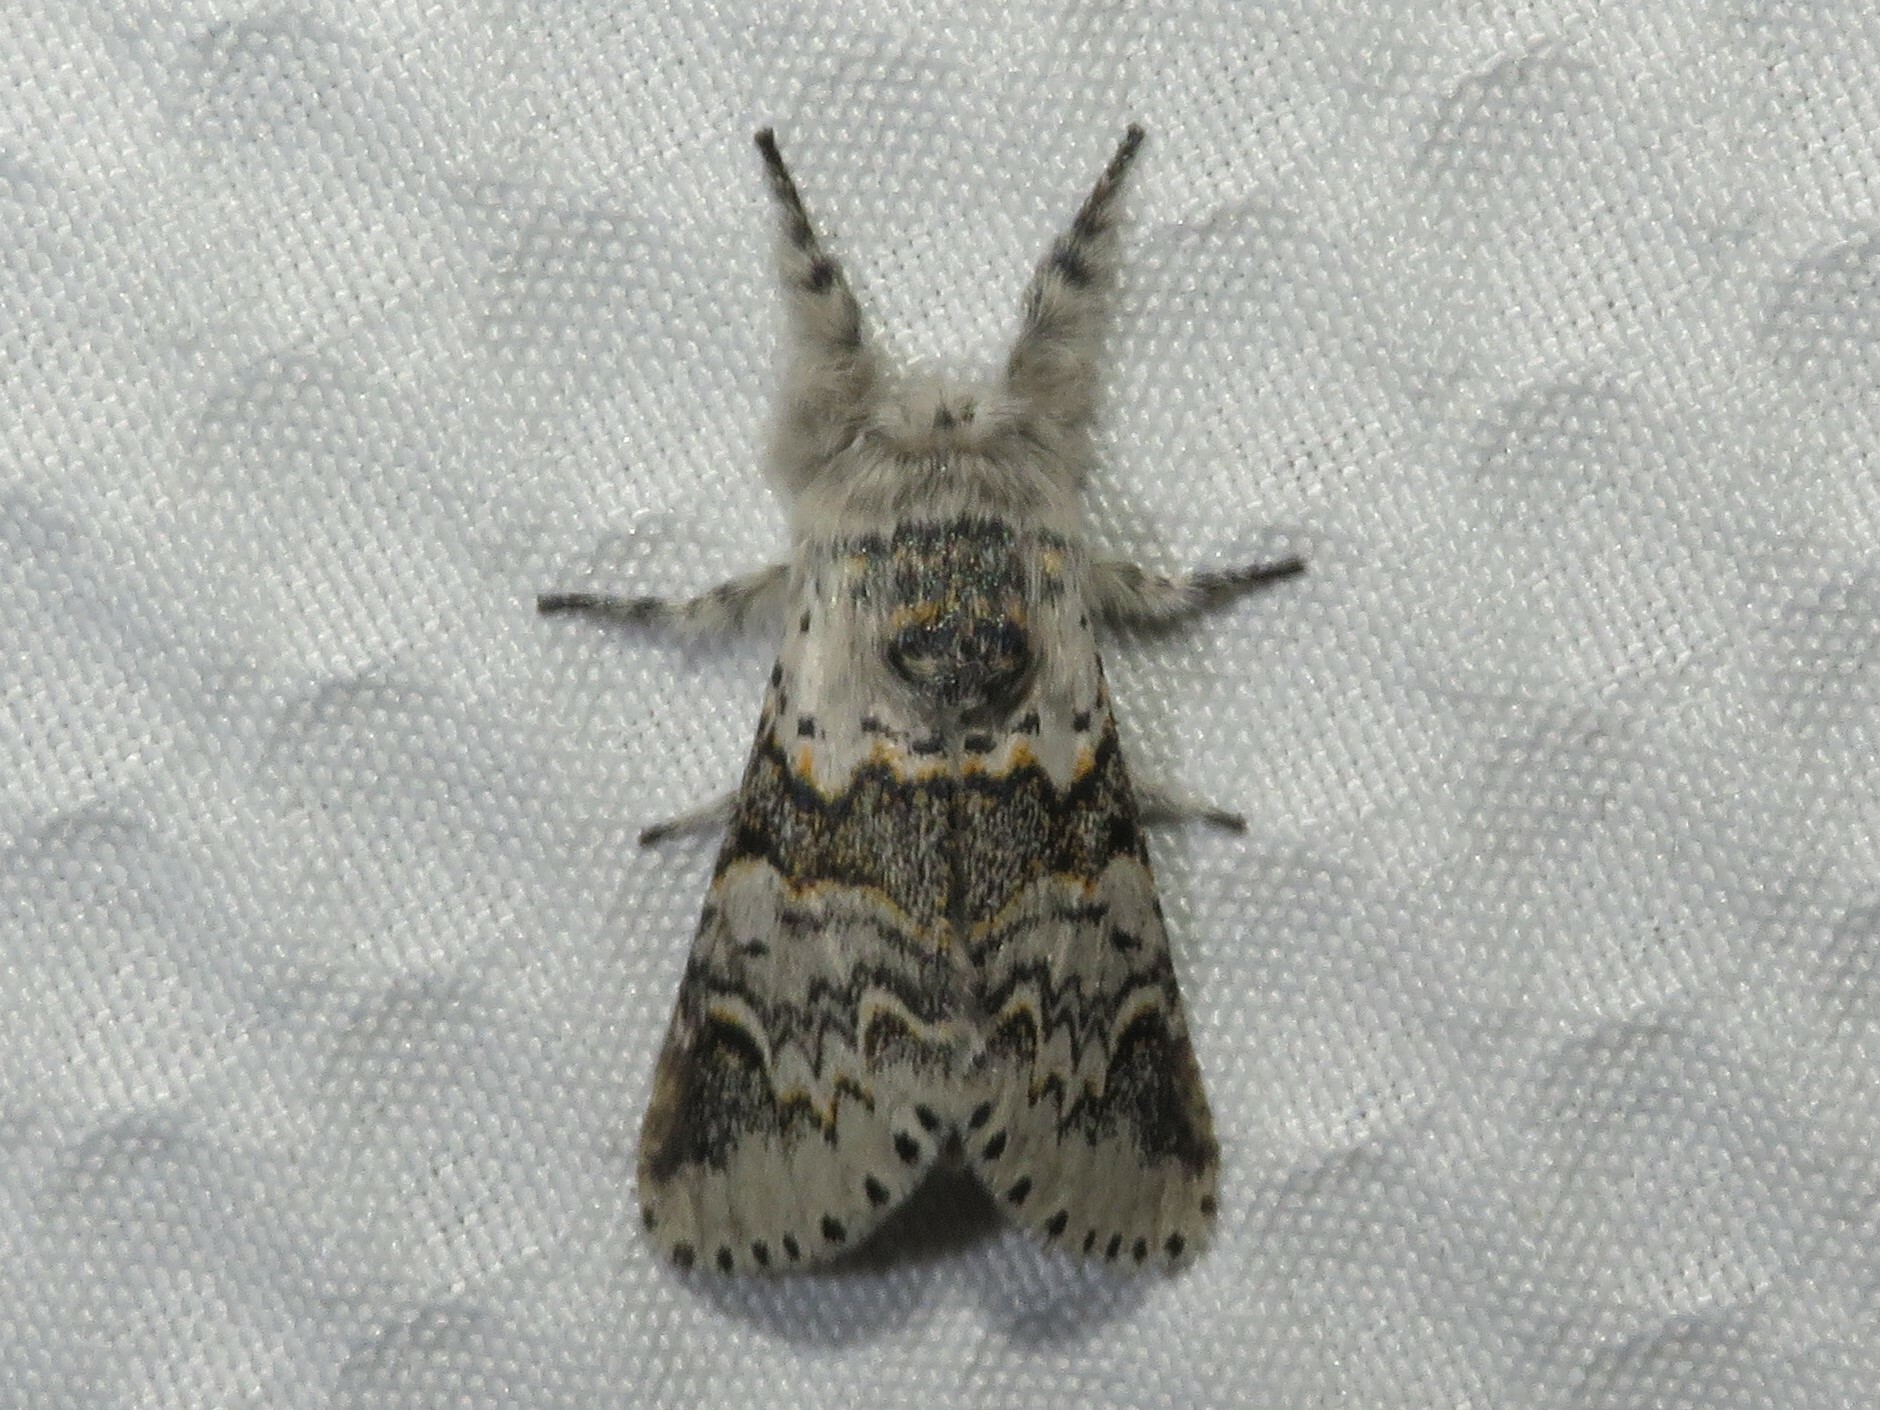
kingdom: Animalia
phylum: Arthropoda
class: Insecta
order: Lepidoptera
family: Notodontidae
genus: Furcula
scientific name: Furcula occidentalis
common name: Western furcula moth
